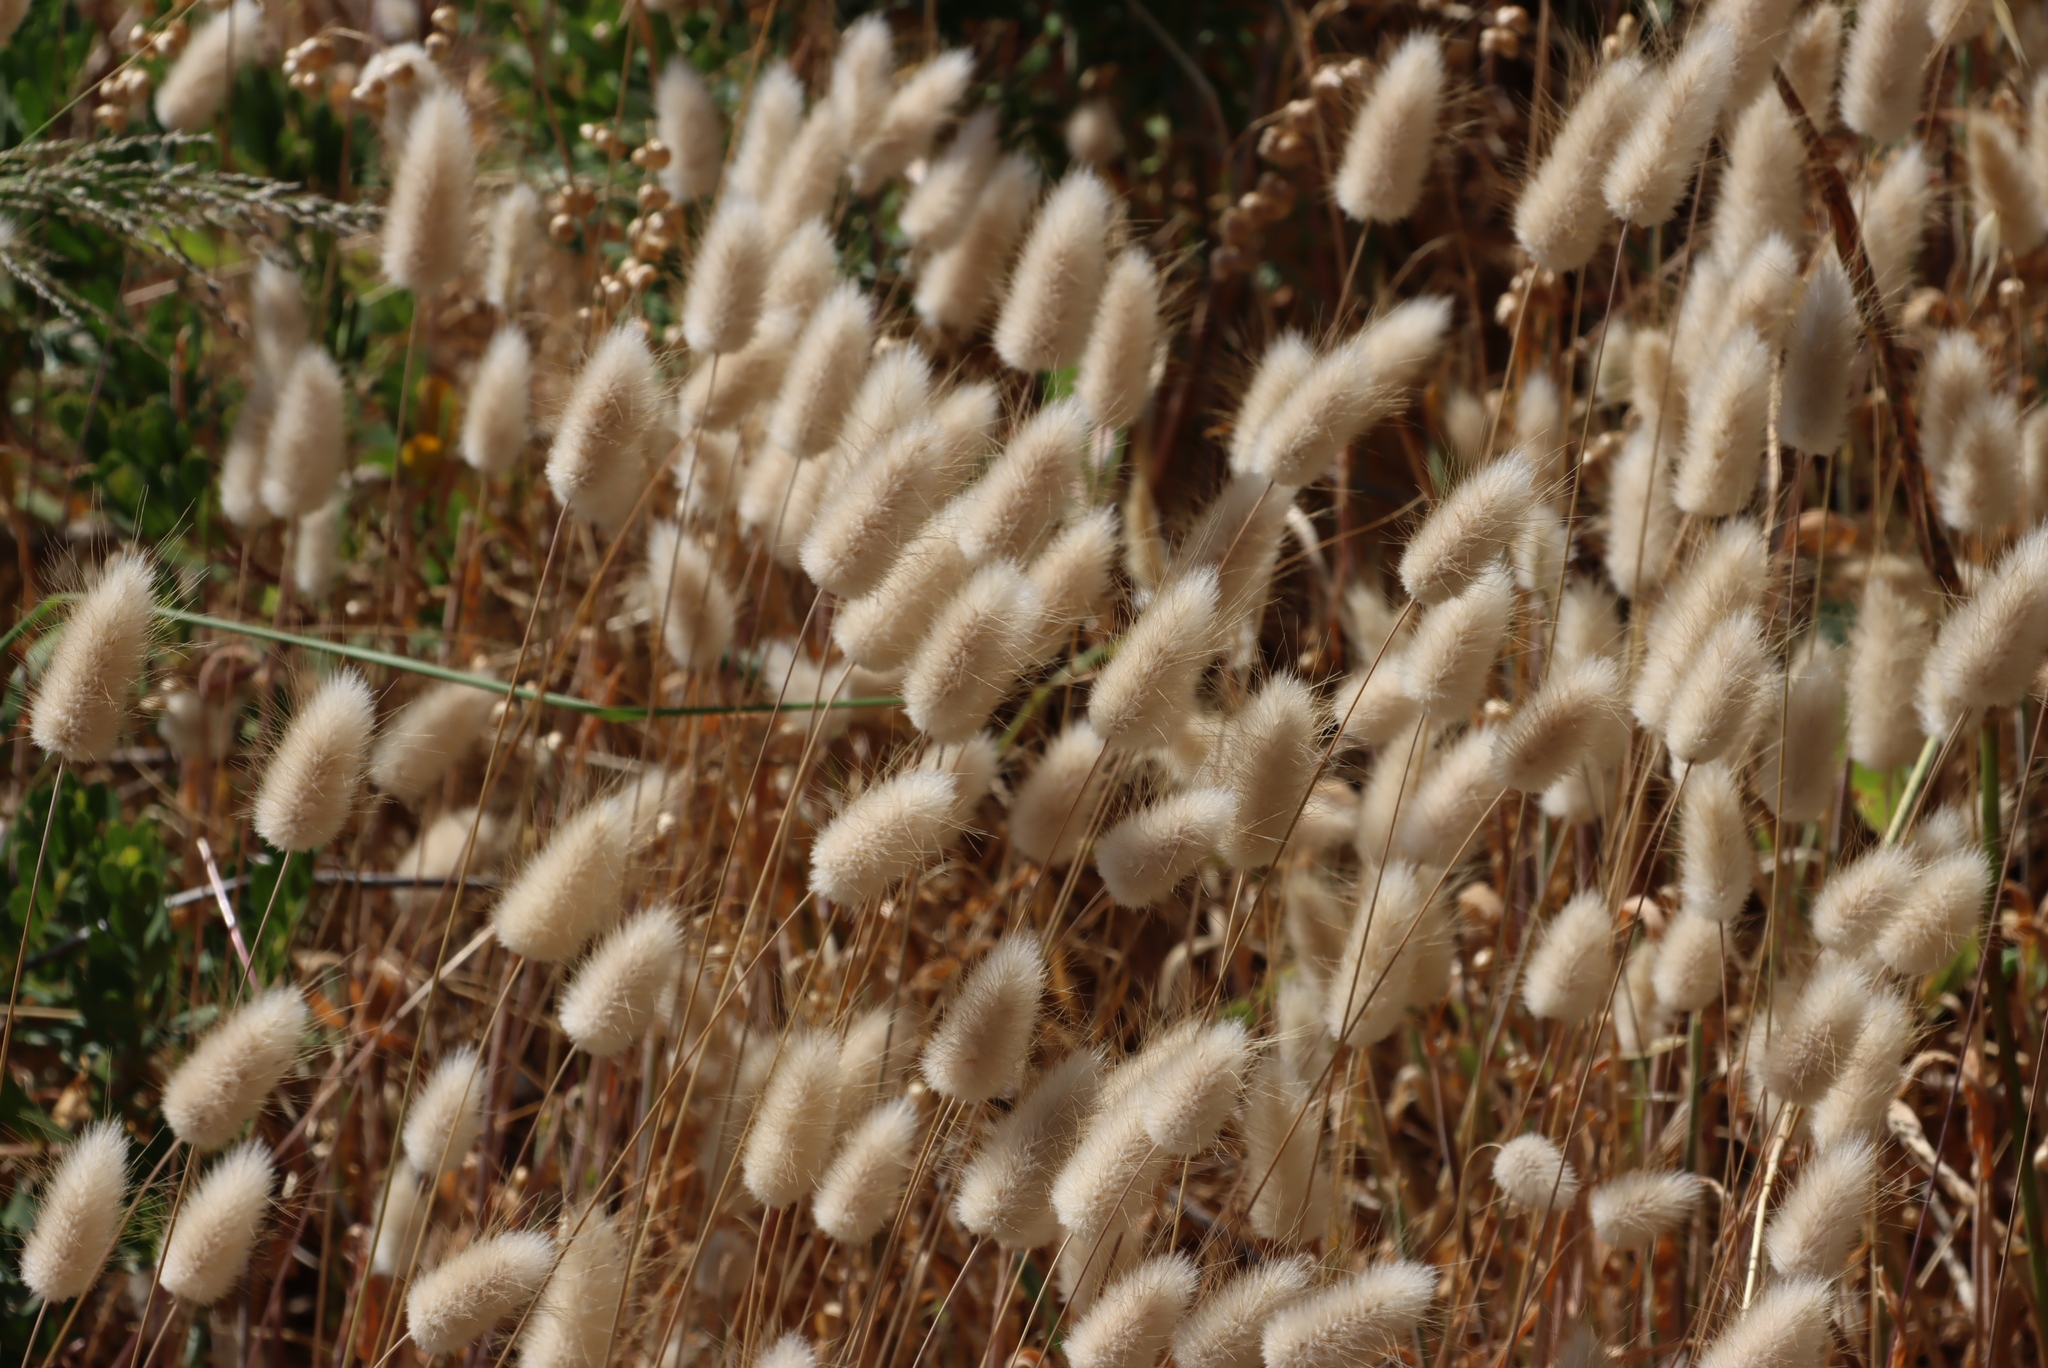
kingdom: Plantae
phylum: Tracheophyta
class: Liliopsida
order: Poales
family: Poaceae
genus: Lagurus
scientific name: Lagurus ovatus
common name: Hare's-tail
